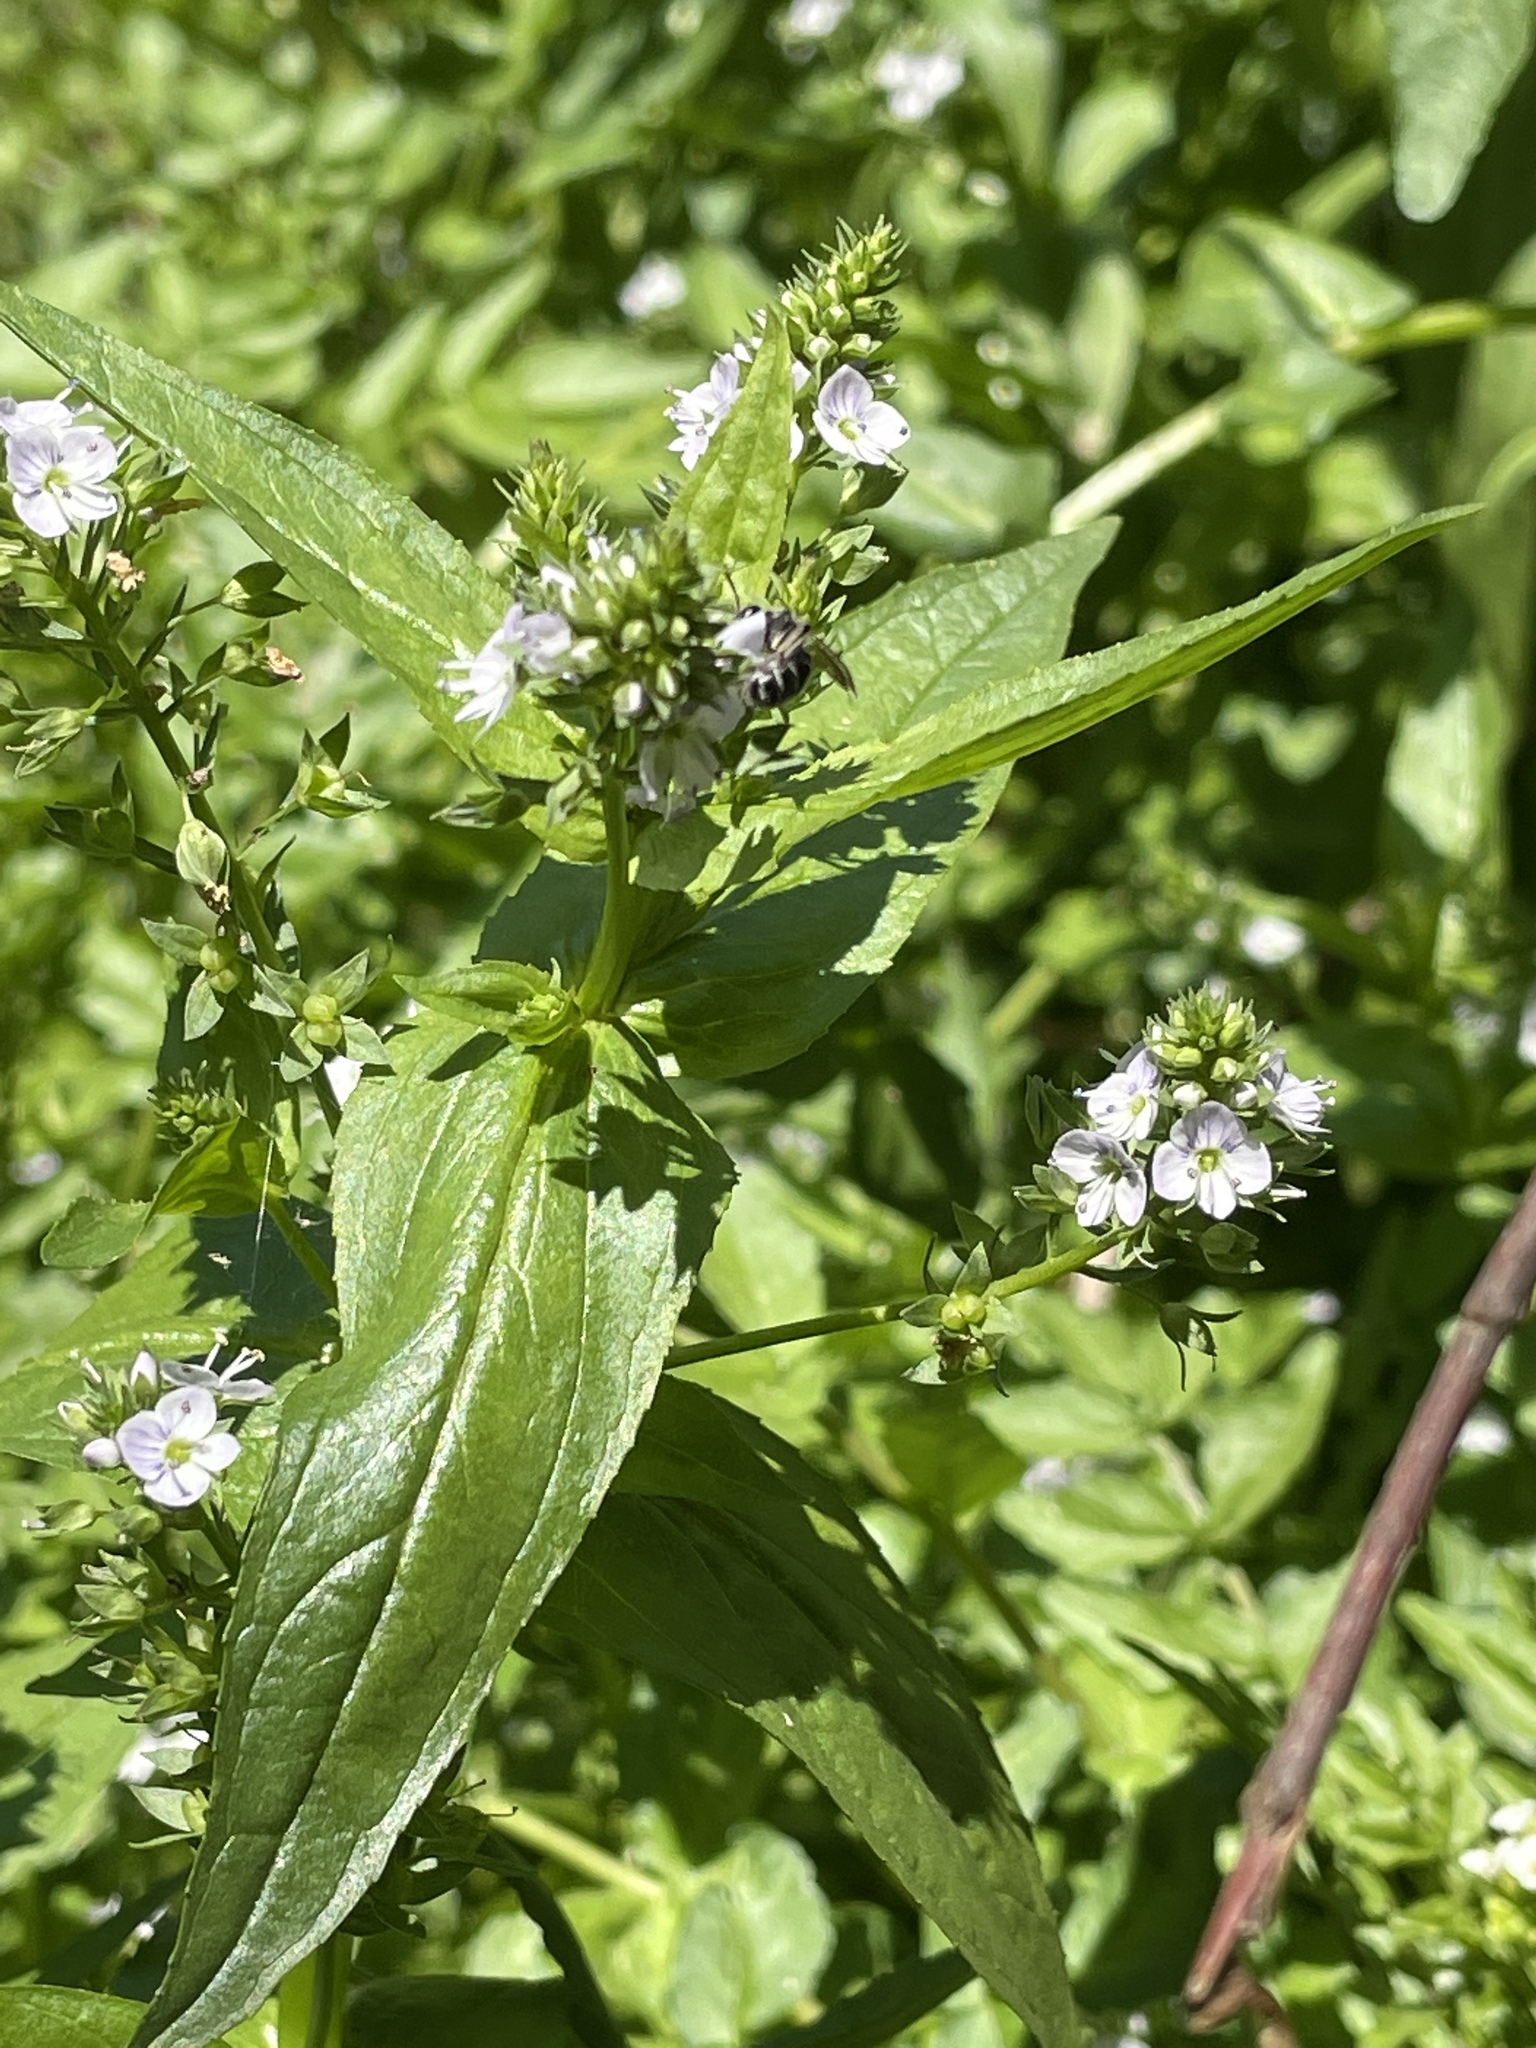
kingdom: Plantae
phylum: Tracheophyta
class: Magnoliopsida
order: Lamiales
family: Plantaginaceae
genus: Veronica
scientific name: Veronica anagallis-aquatica
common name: Water speedwell
